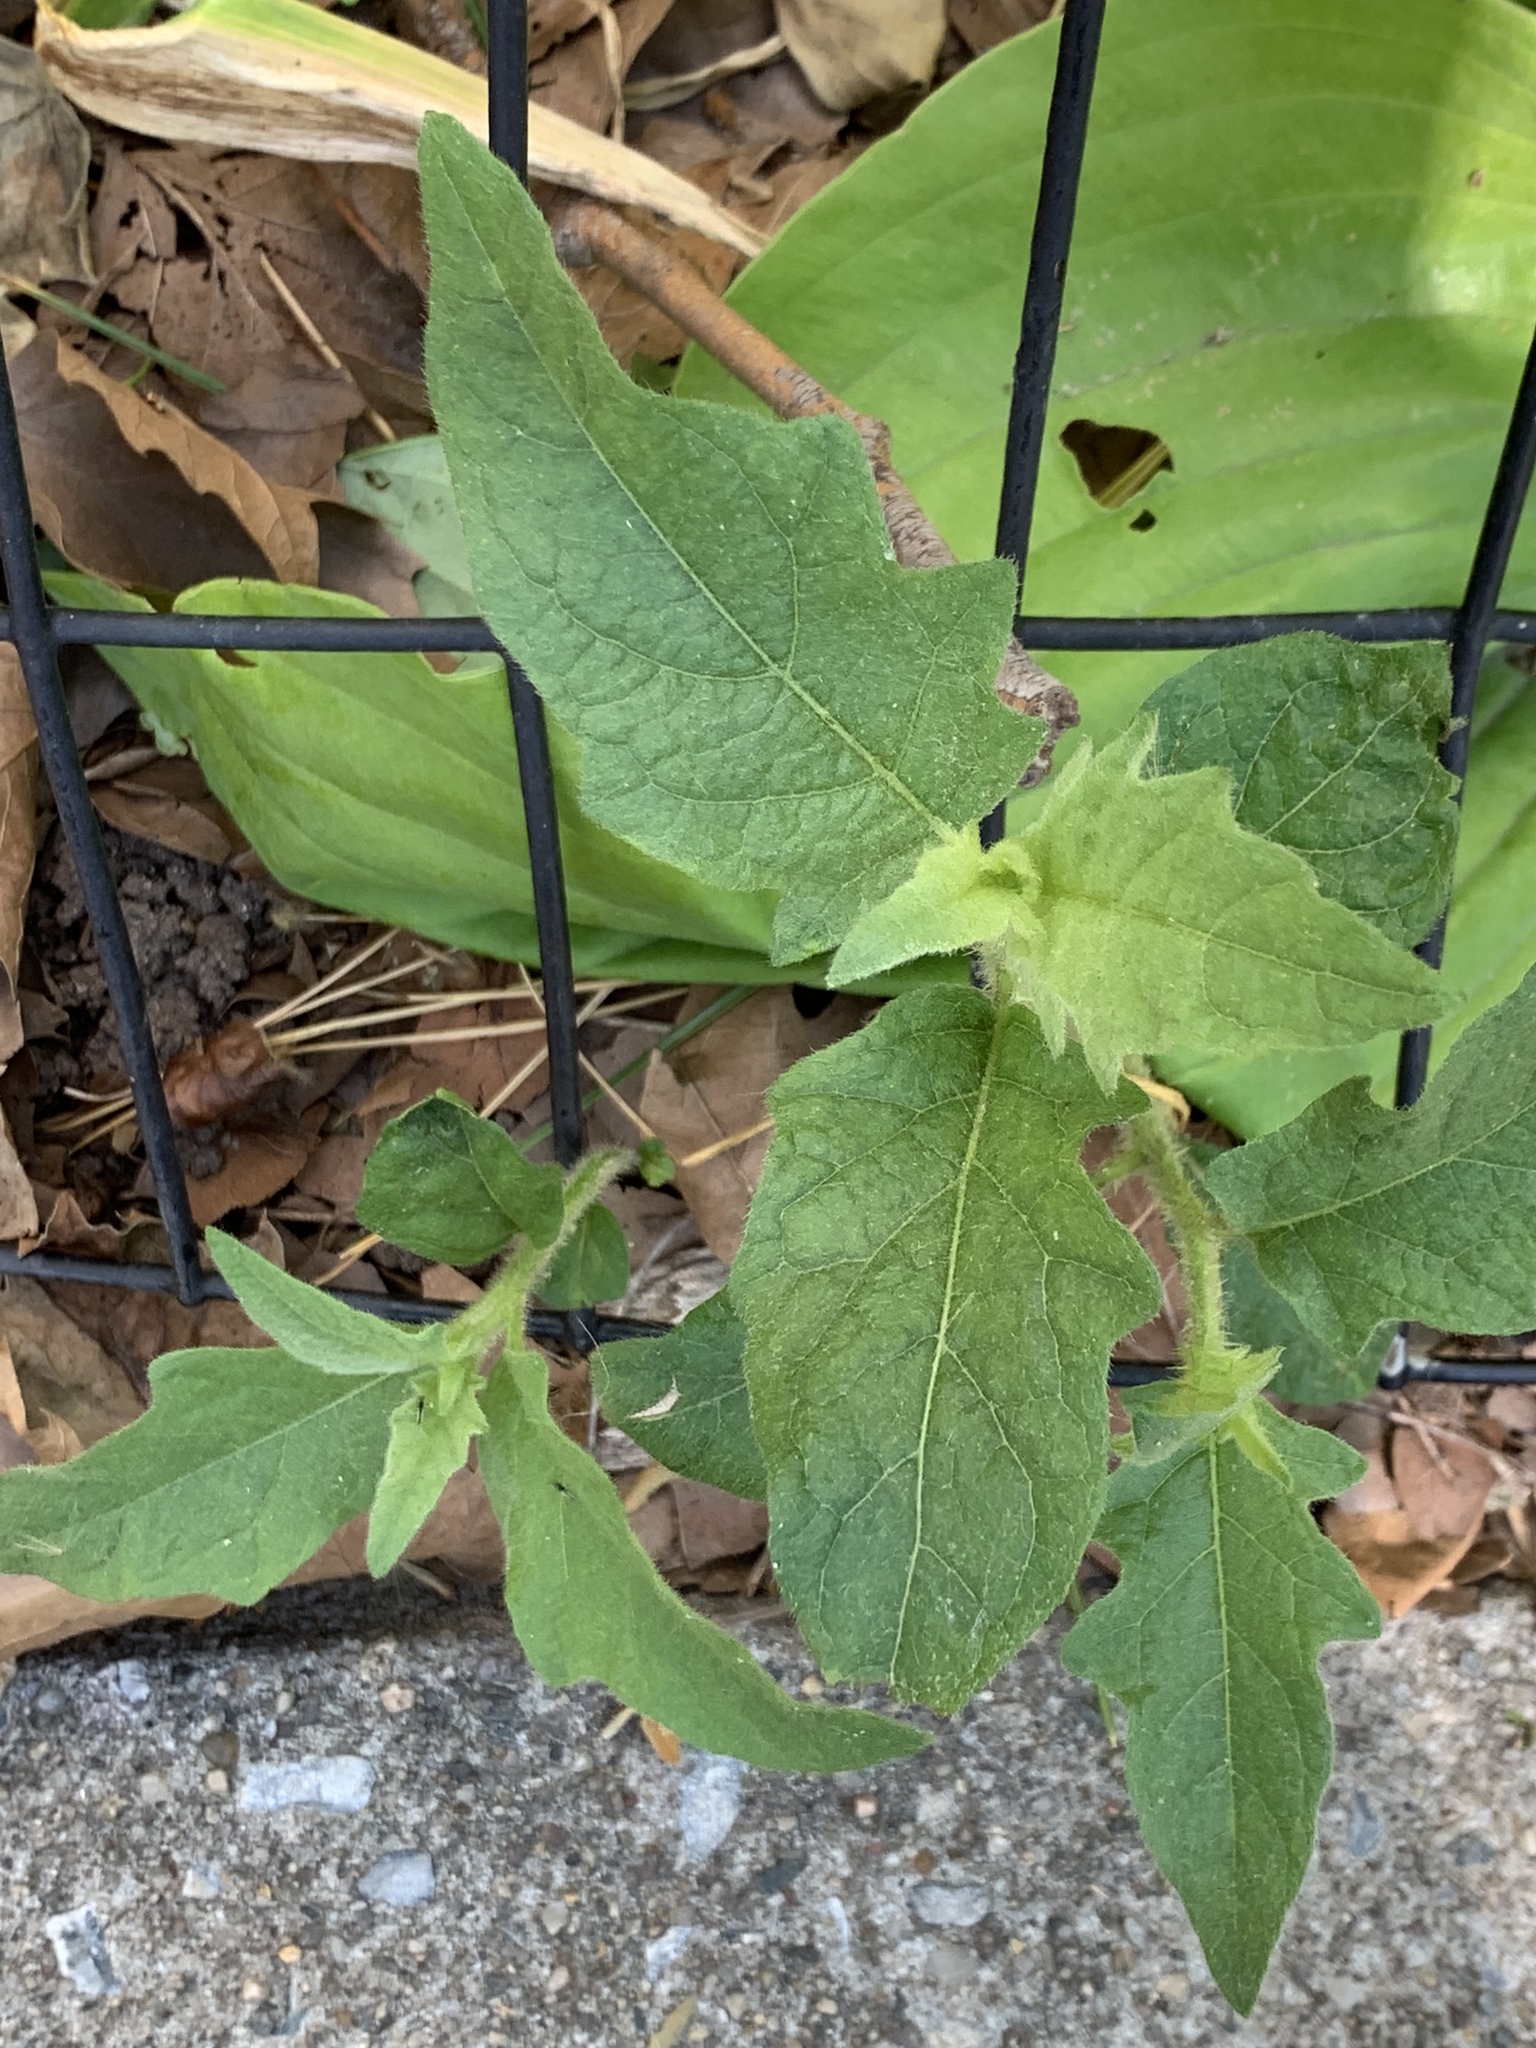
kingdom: Plantae
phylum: Tracheophyta
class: Magnoliopsida
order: Solanales
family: Solanaceae
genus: Solanum
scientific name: Solanum carolinense
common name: Horse-nettle
